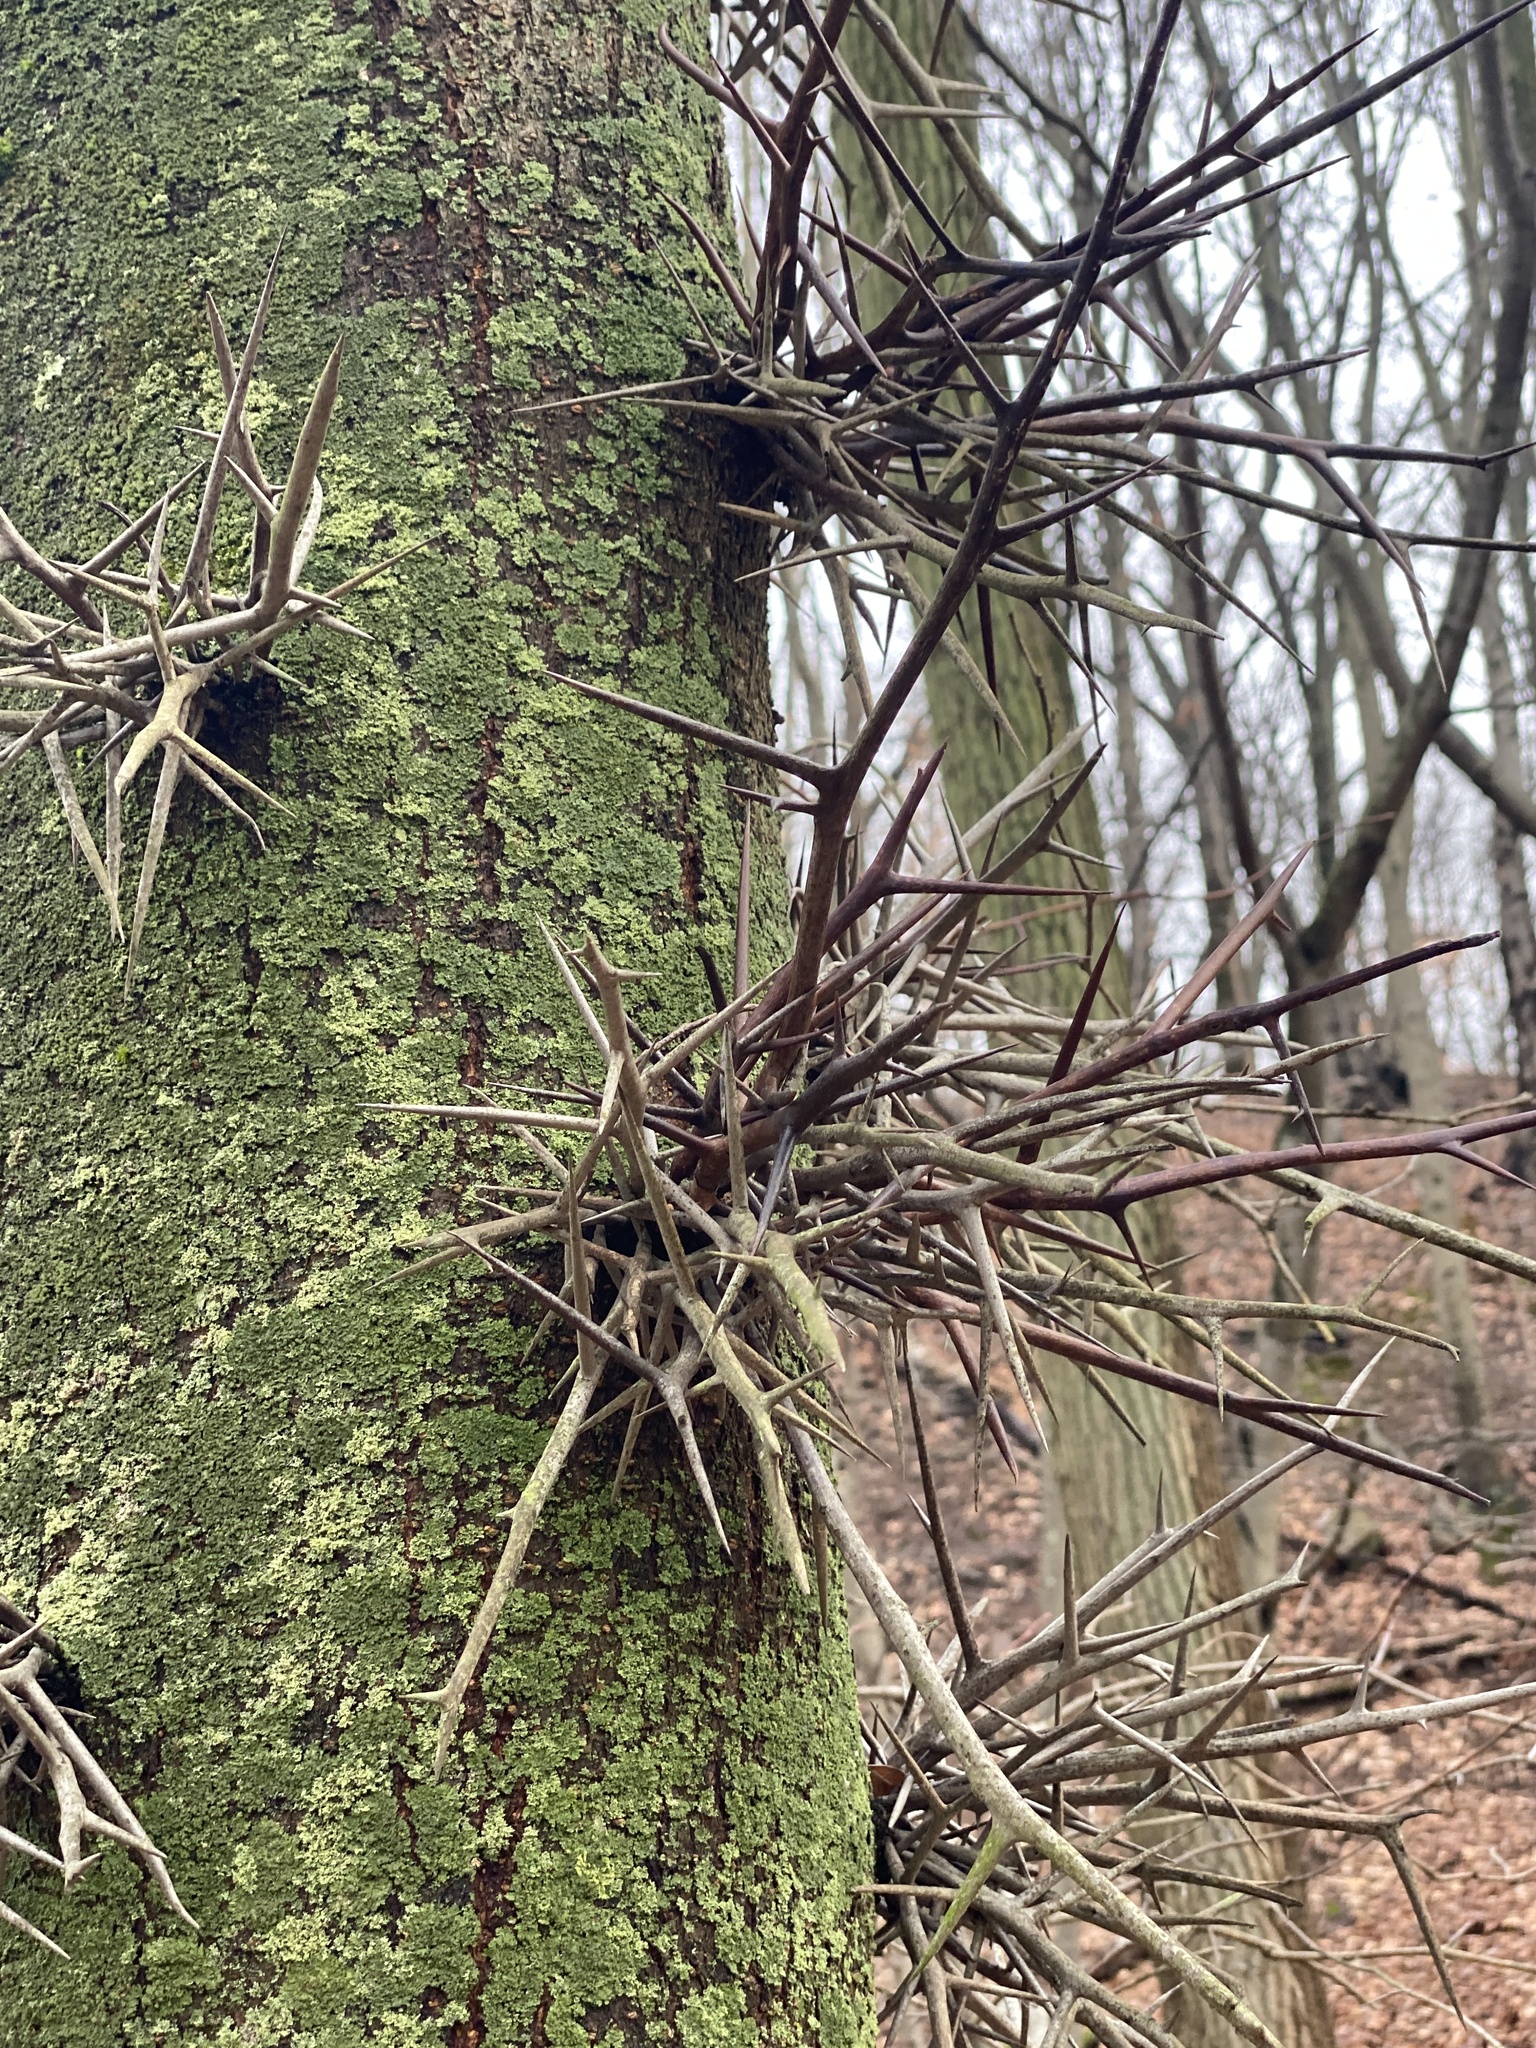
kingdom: Plantae
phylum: Tracheophyta
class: Magnoliopsida
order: Fabales
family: Fabaceae
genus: Gleditsia
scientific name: Gleditsia triacanthos
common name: Common honeylocust
